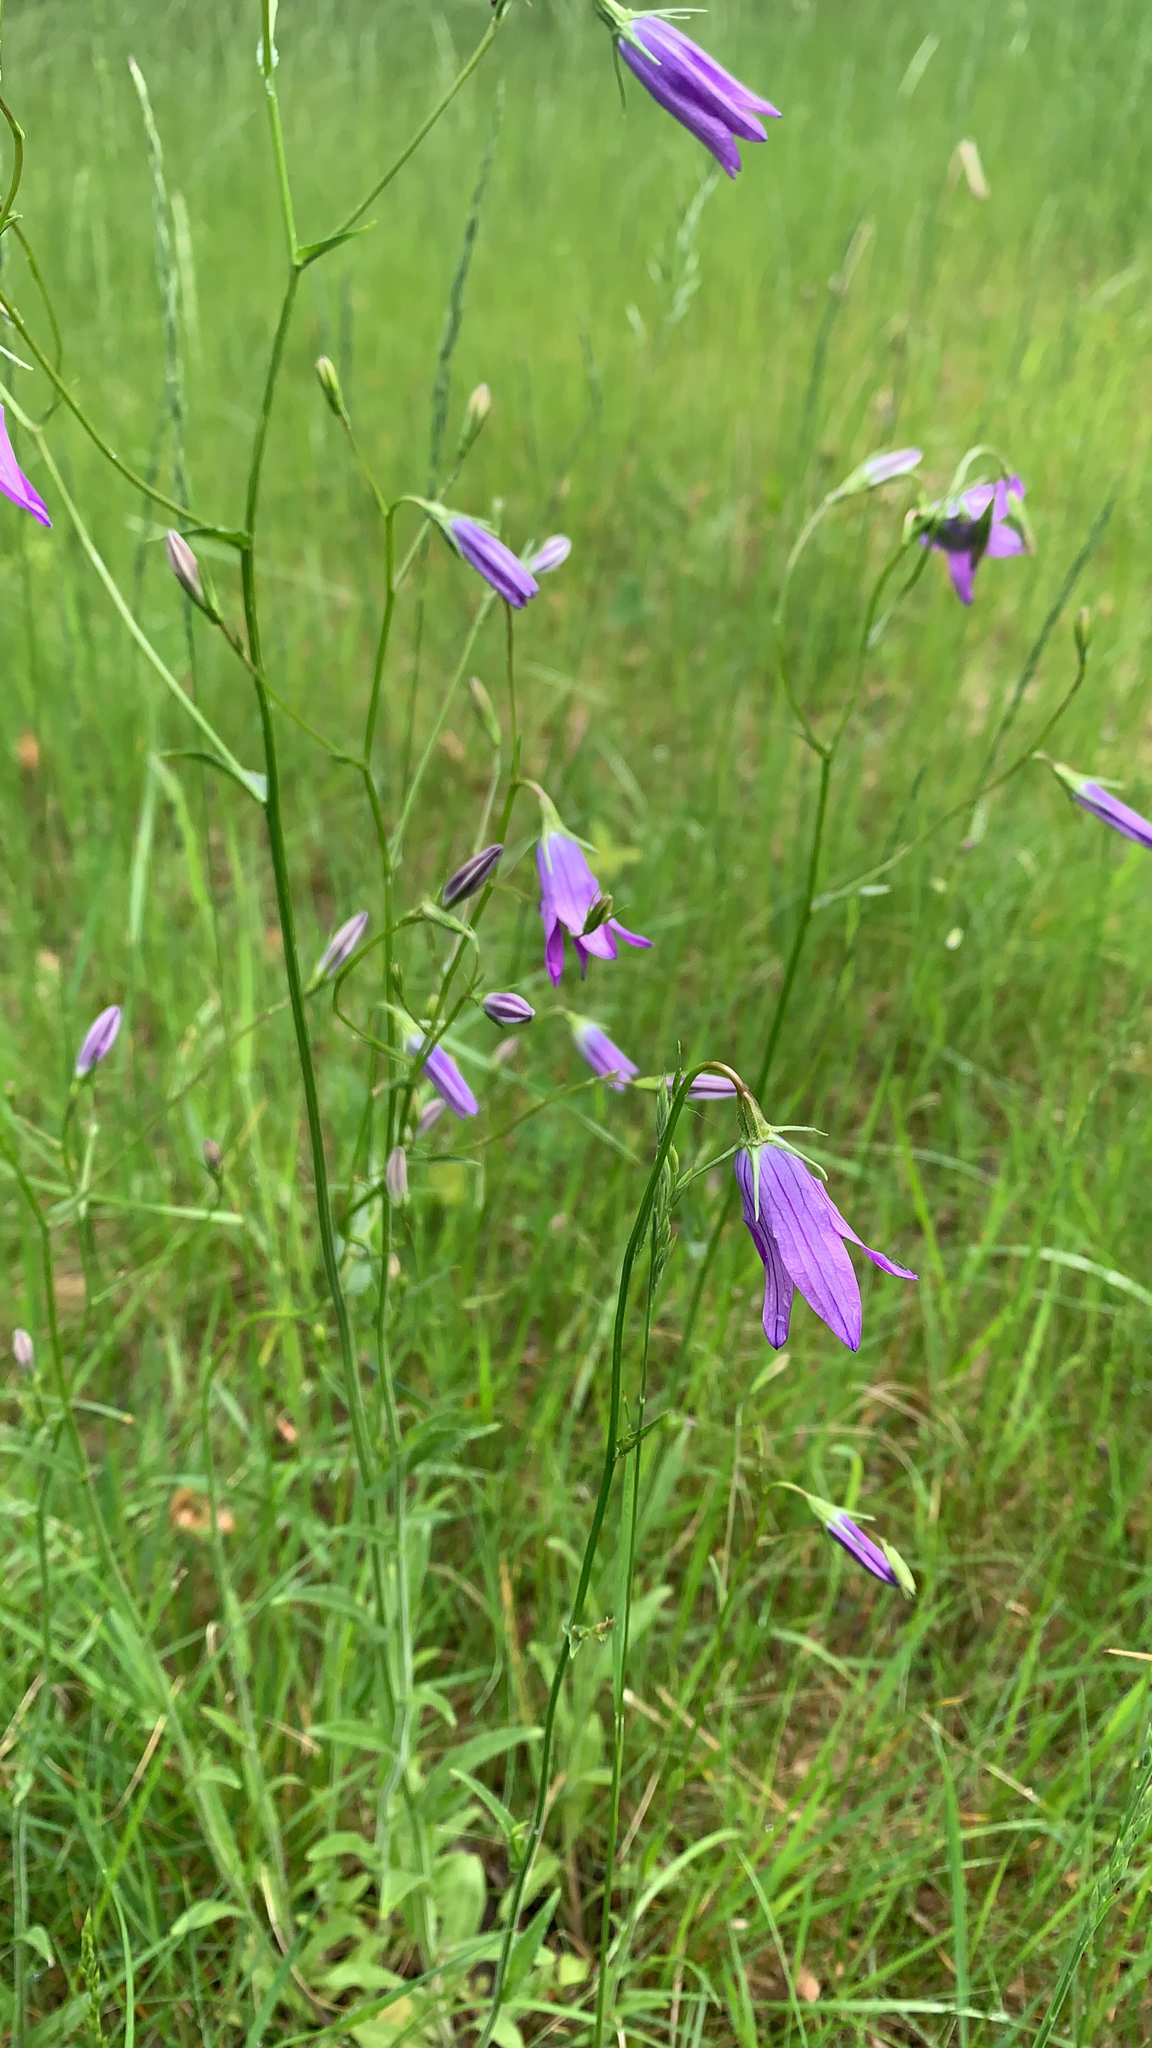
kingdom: Plantae
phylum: Tracheophyta
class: Magnoliopsida
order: Asterales
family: Campanulaceae
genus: Campanula
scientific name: Campanula patula
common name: Spreading bellflower
